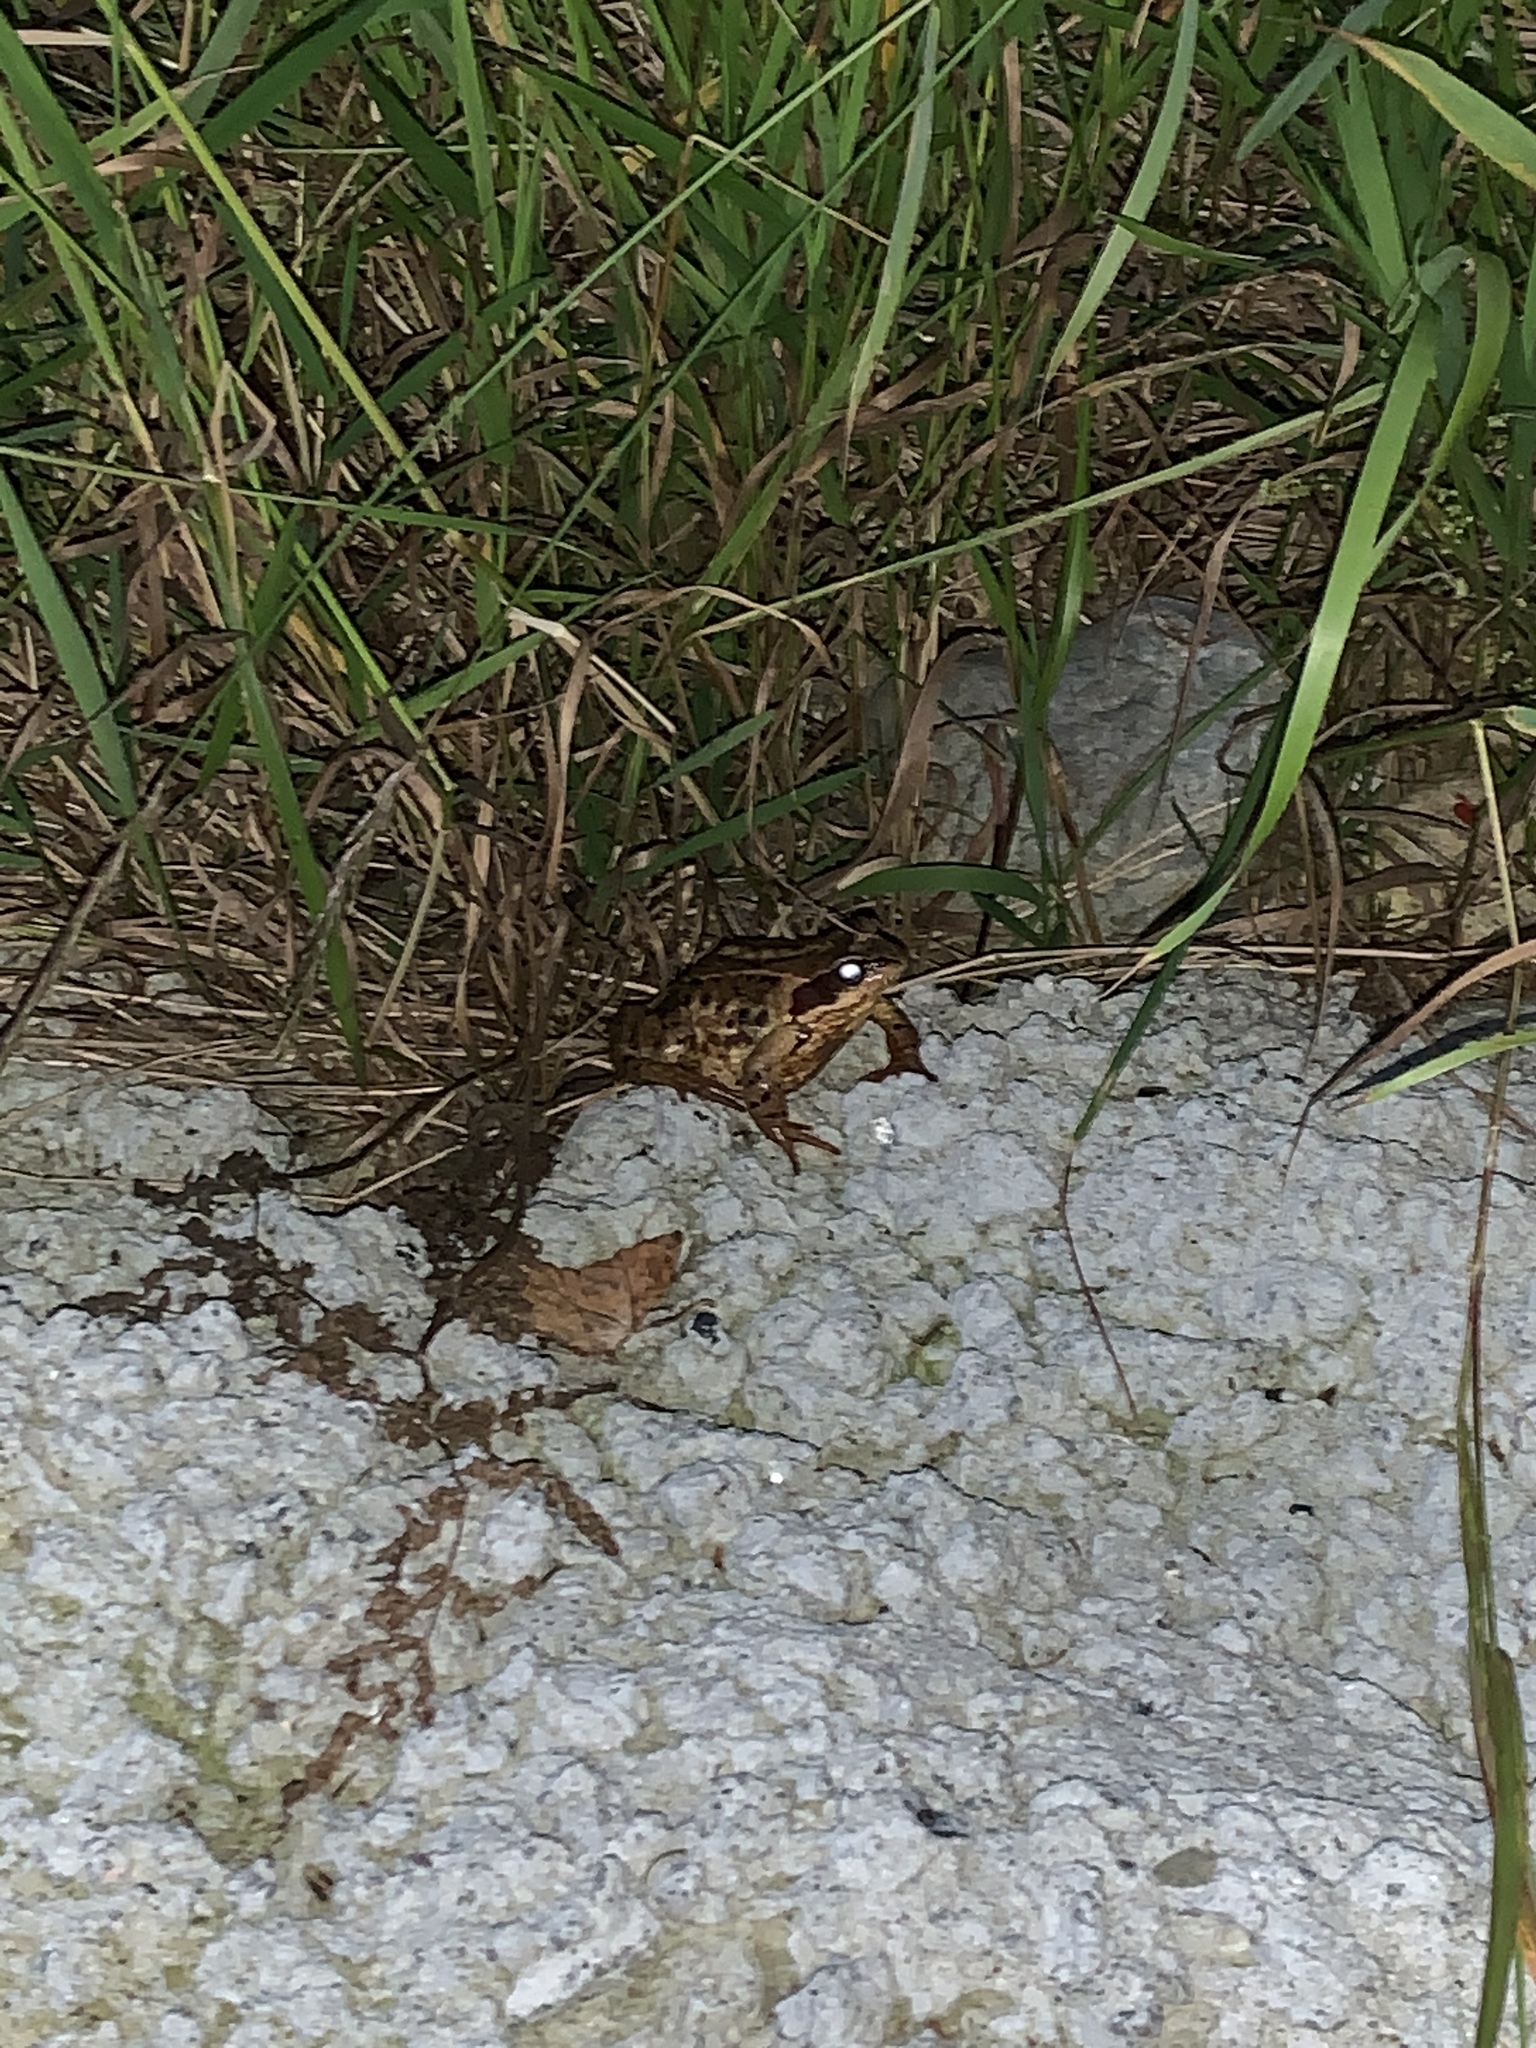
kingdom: Animalia
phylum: Chordata
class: Amphibia
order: Anura
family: Ranidae
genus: Rana
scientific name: Rana temporaria
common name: Common frog
